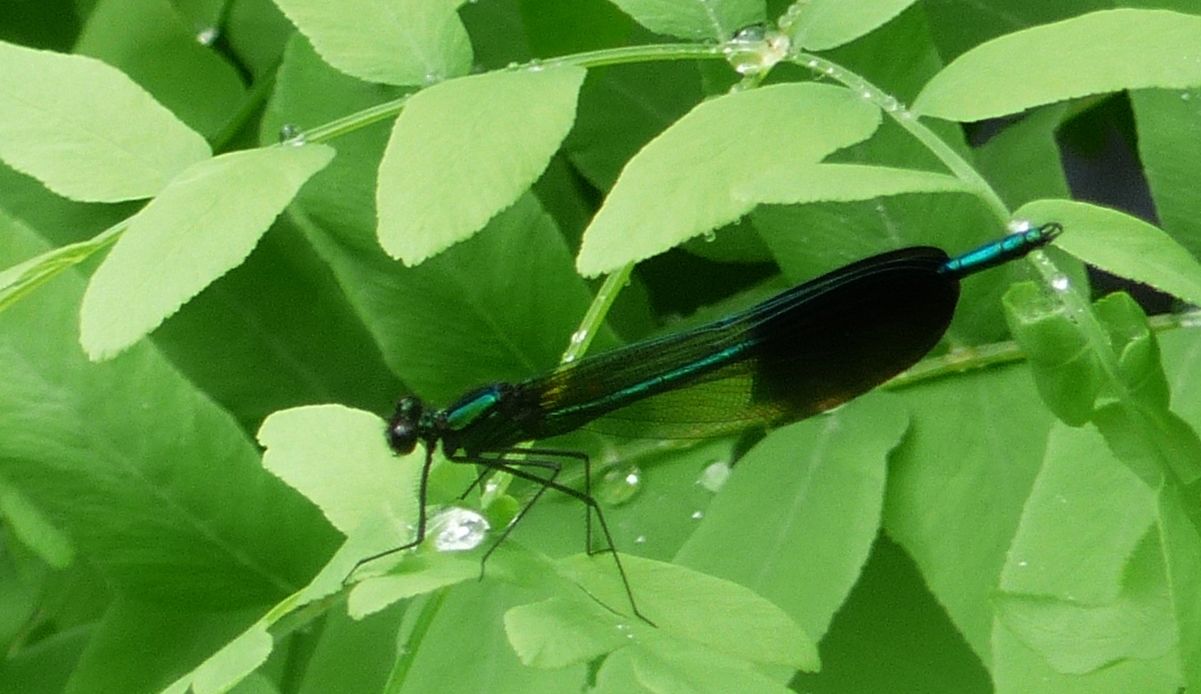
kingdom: Animalia
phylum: Arthropoda
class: Insecta
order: Odonata
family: Calopterygidae
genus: Calopteryx
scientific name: Calopteryx aequabilis
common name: River jewelwing
